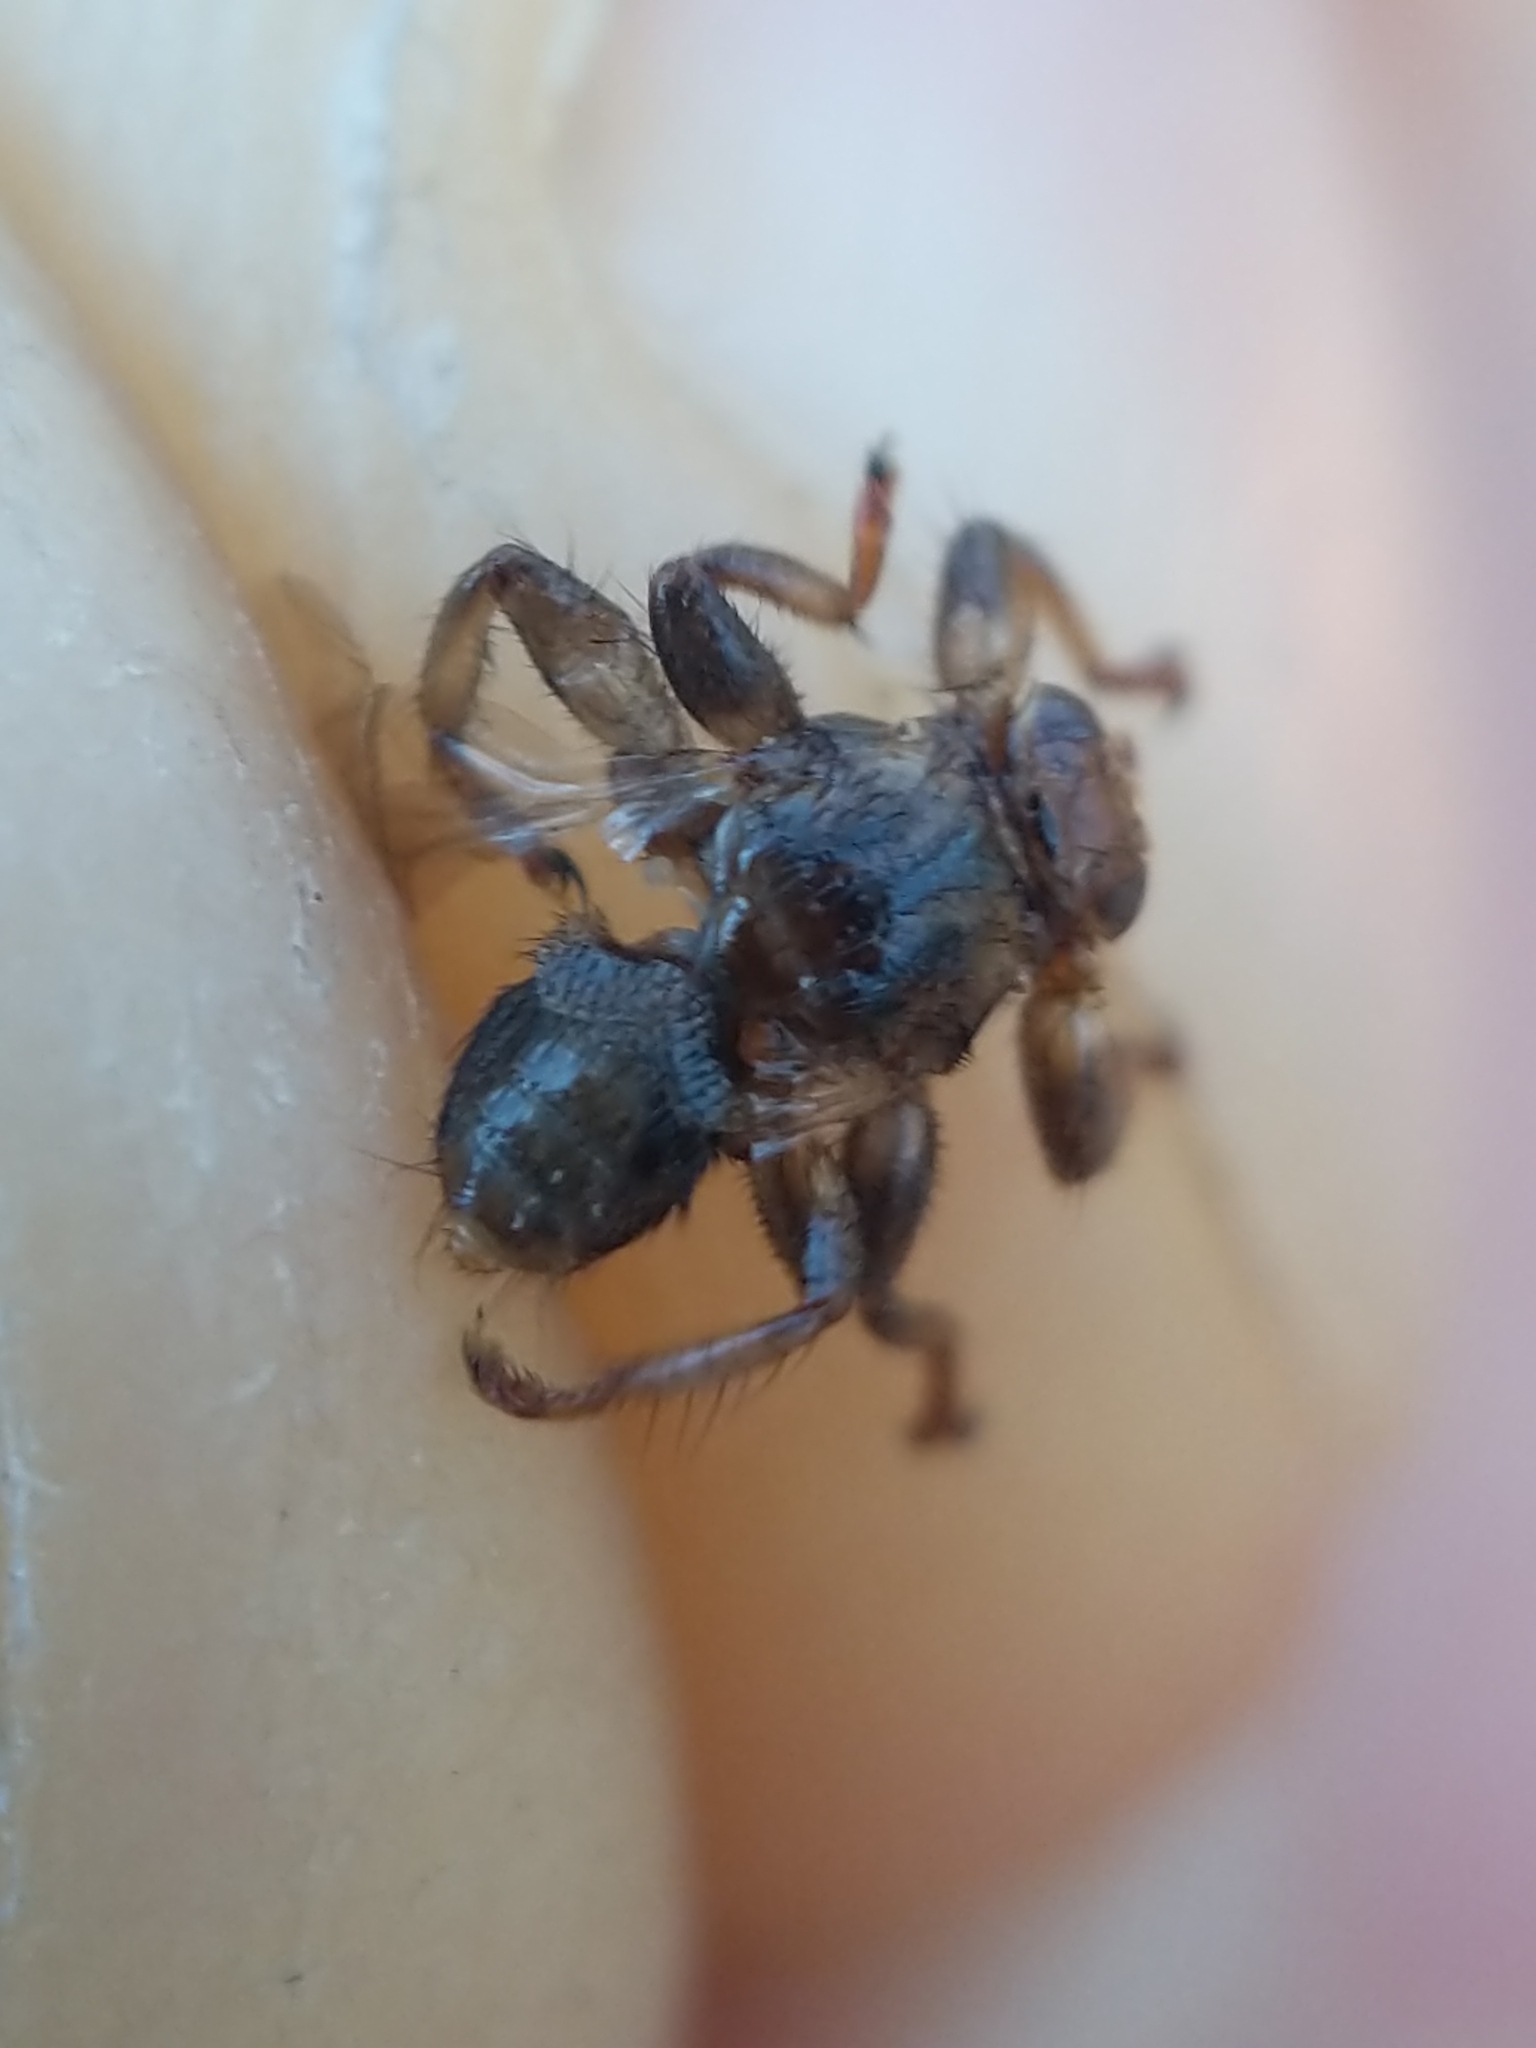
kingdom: Animalia
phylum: Arthropoda
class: Insecta
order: Diptera
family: Hippoboscidae
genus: Lipoptena
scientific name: Lipoptena cervi
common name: Deer ked
